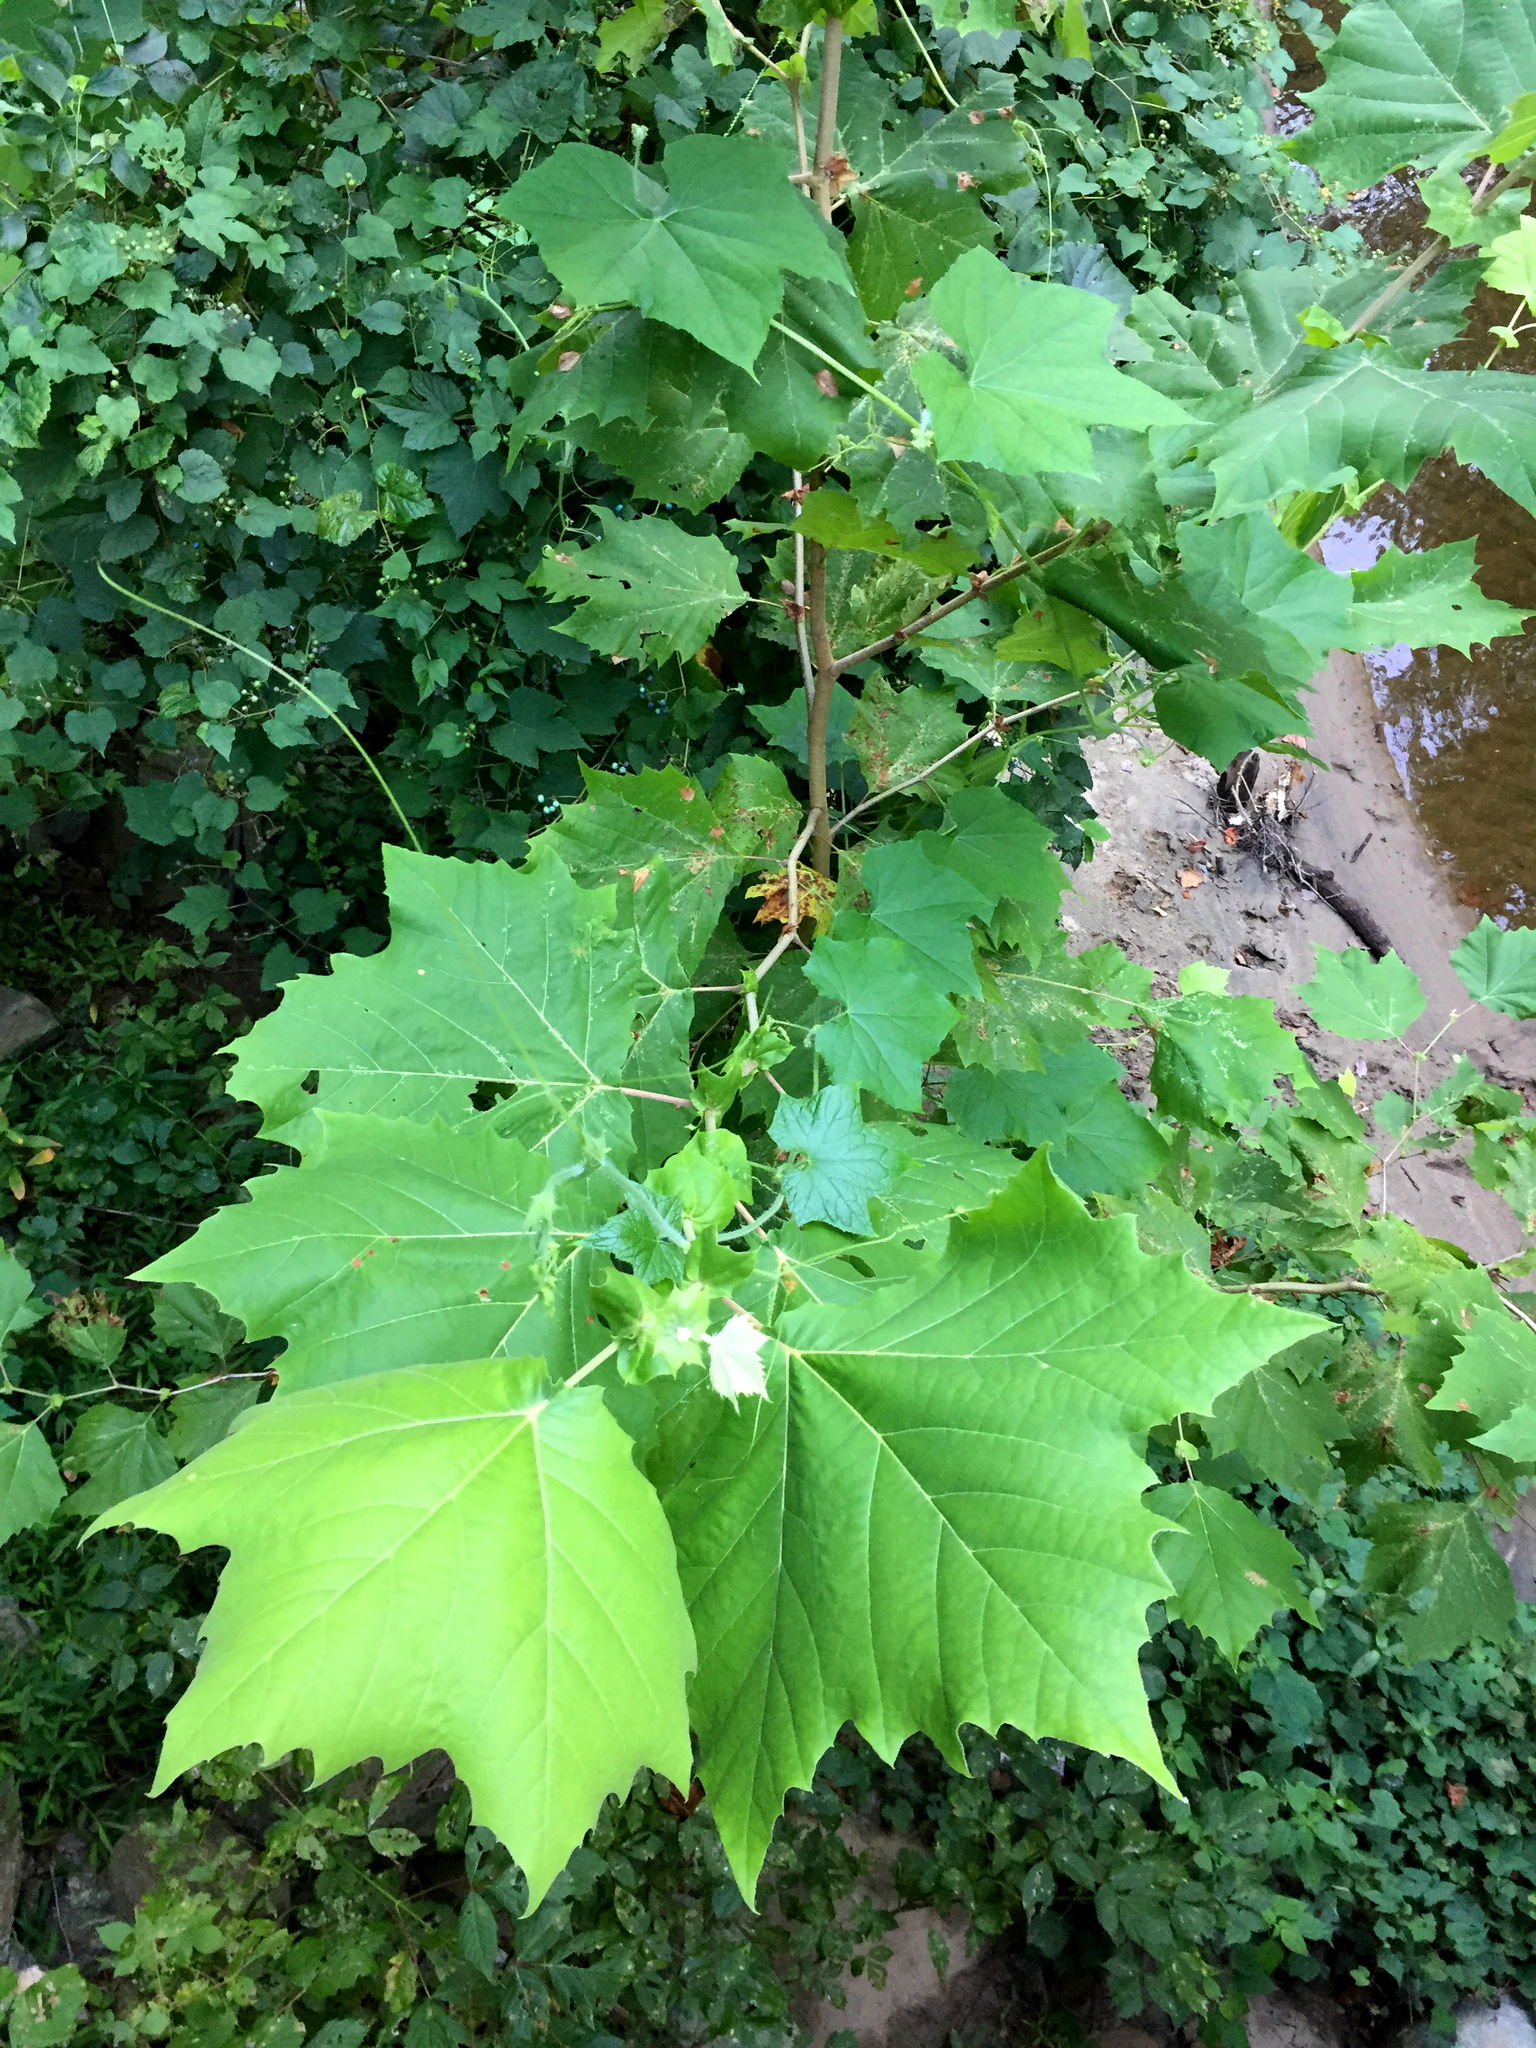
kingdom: Plantae
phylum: Tracheophyta
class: Magnoliopsida
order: Proteales
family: Platanaceae
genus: Platanus
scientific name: Platanus occidentalis
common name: American sycamore
